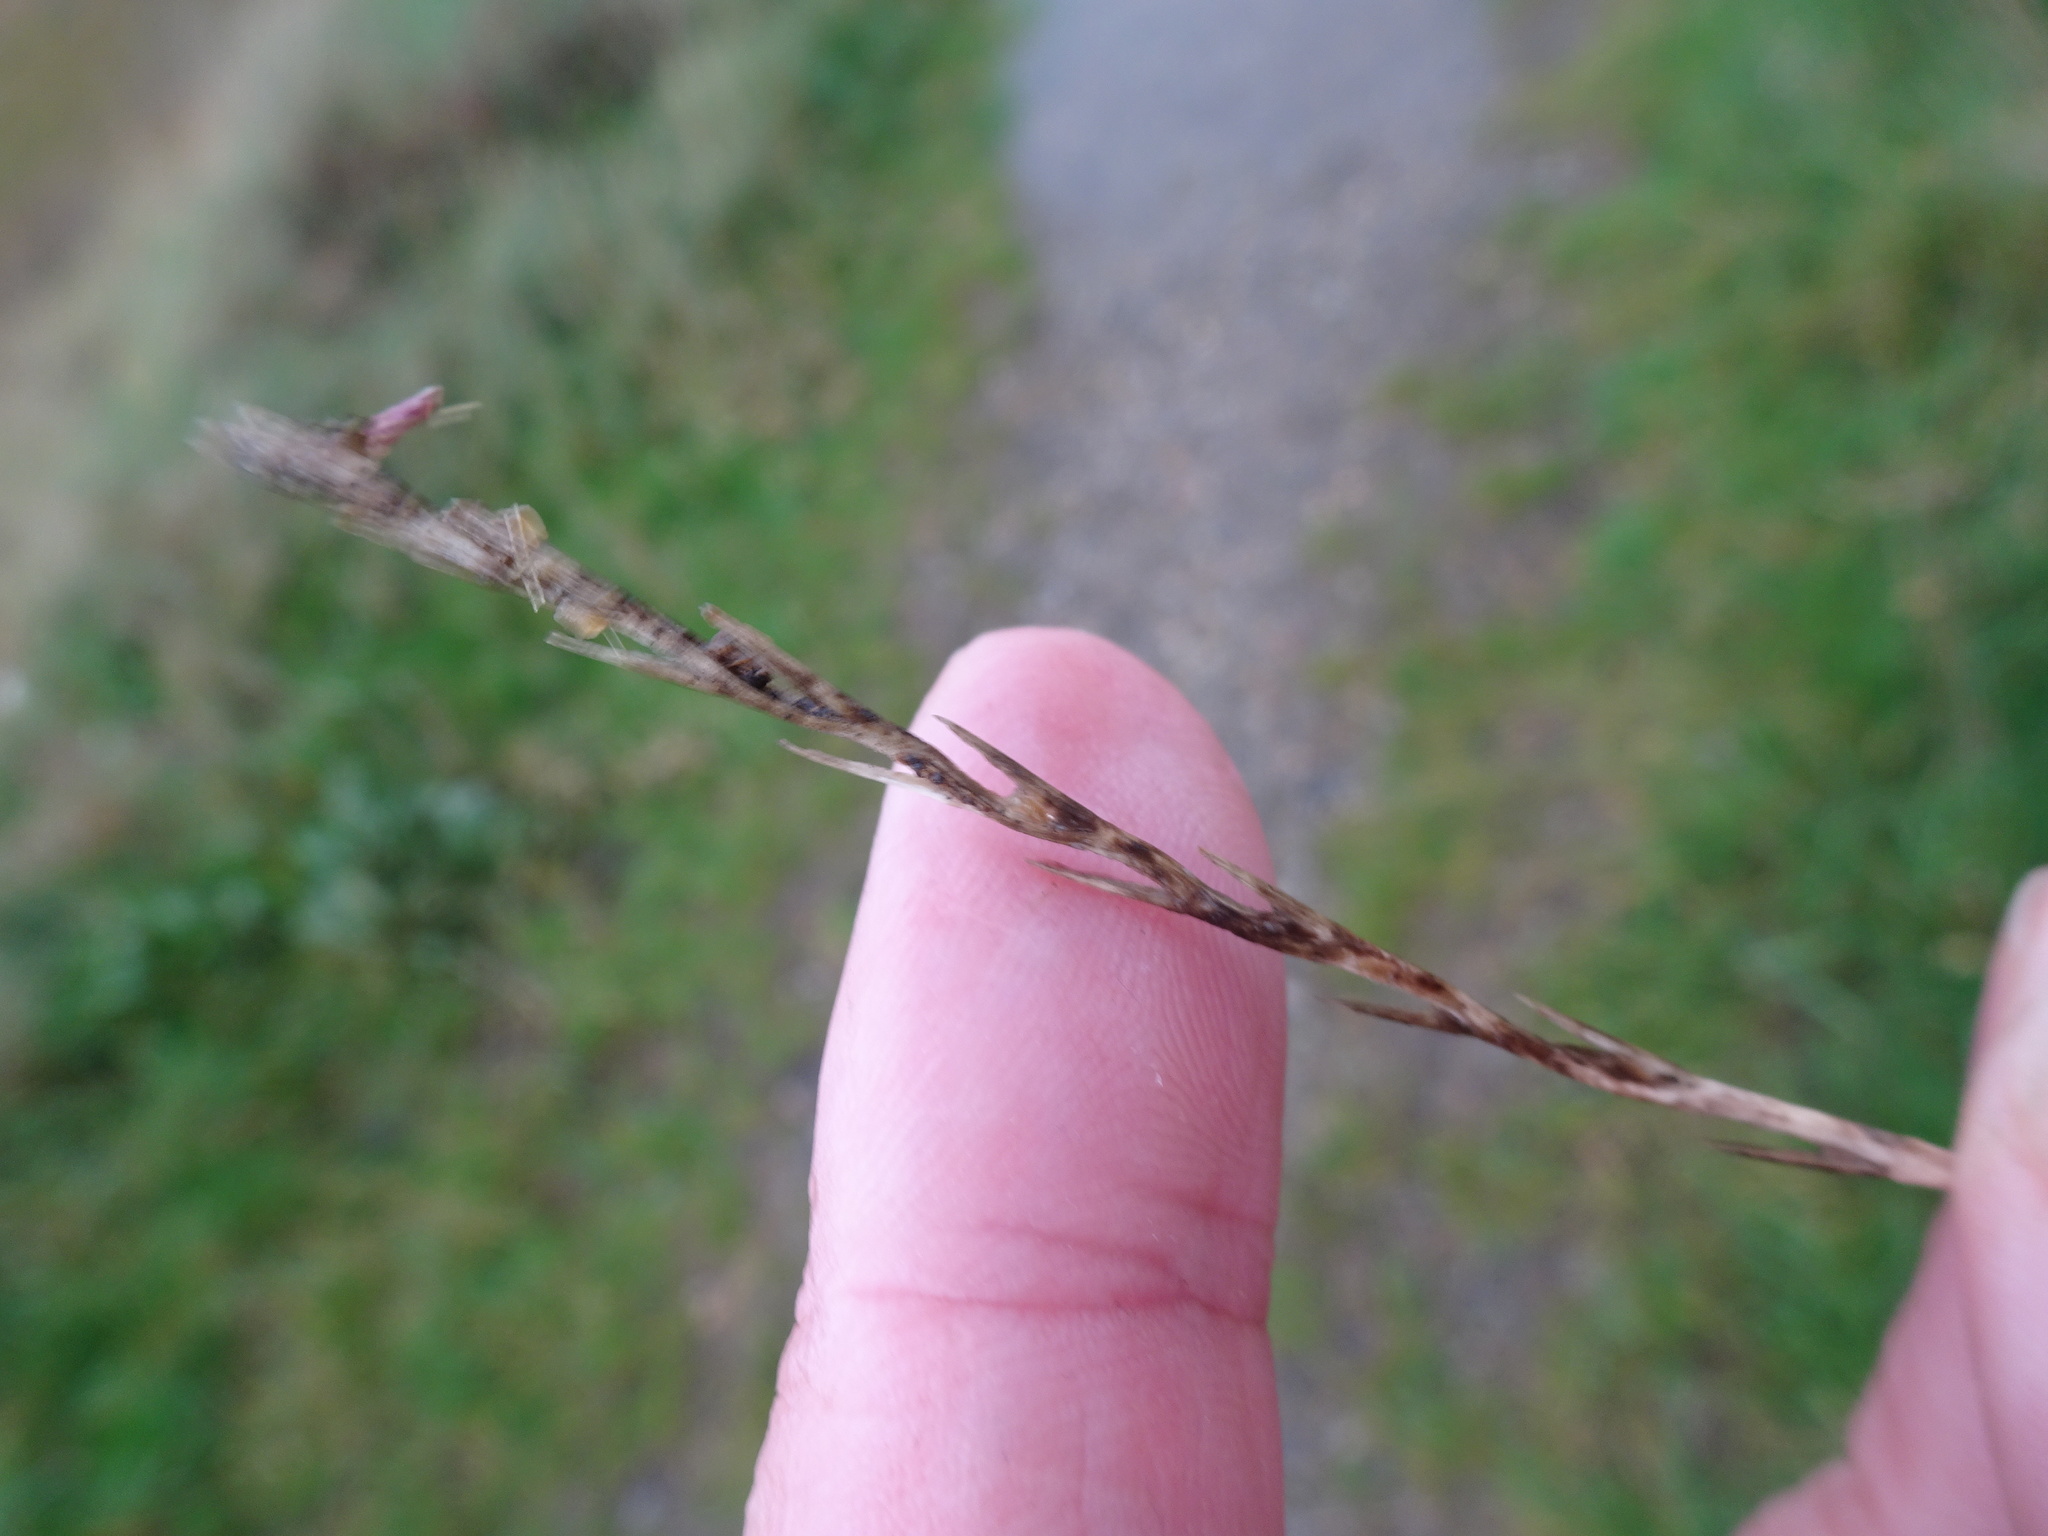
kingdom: Plantae
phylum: Tracheophyta
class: Liliopsida
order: Poales
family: Poaceae
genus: Lolium
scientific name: Lolium perenne
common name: Perennial ryegrass
